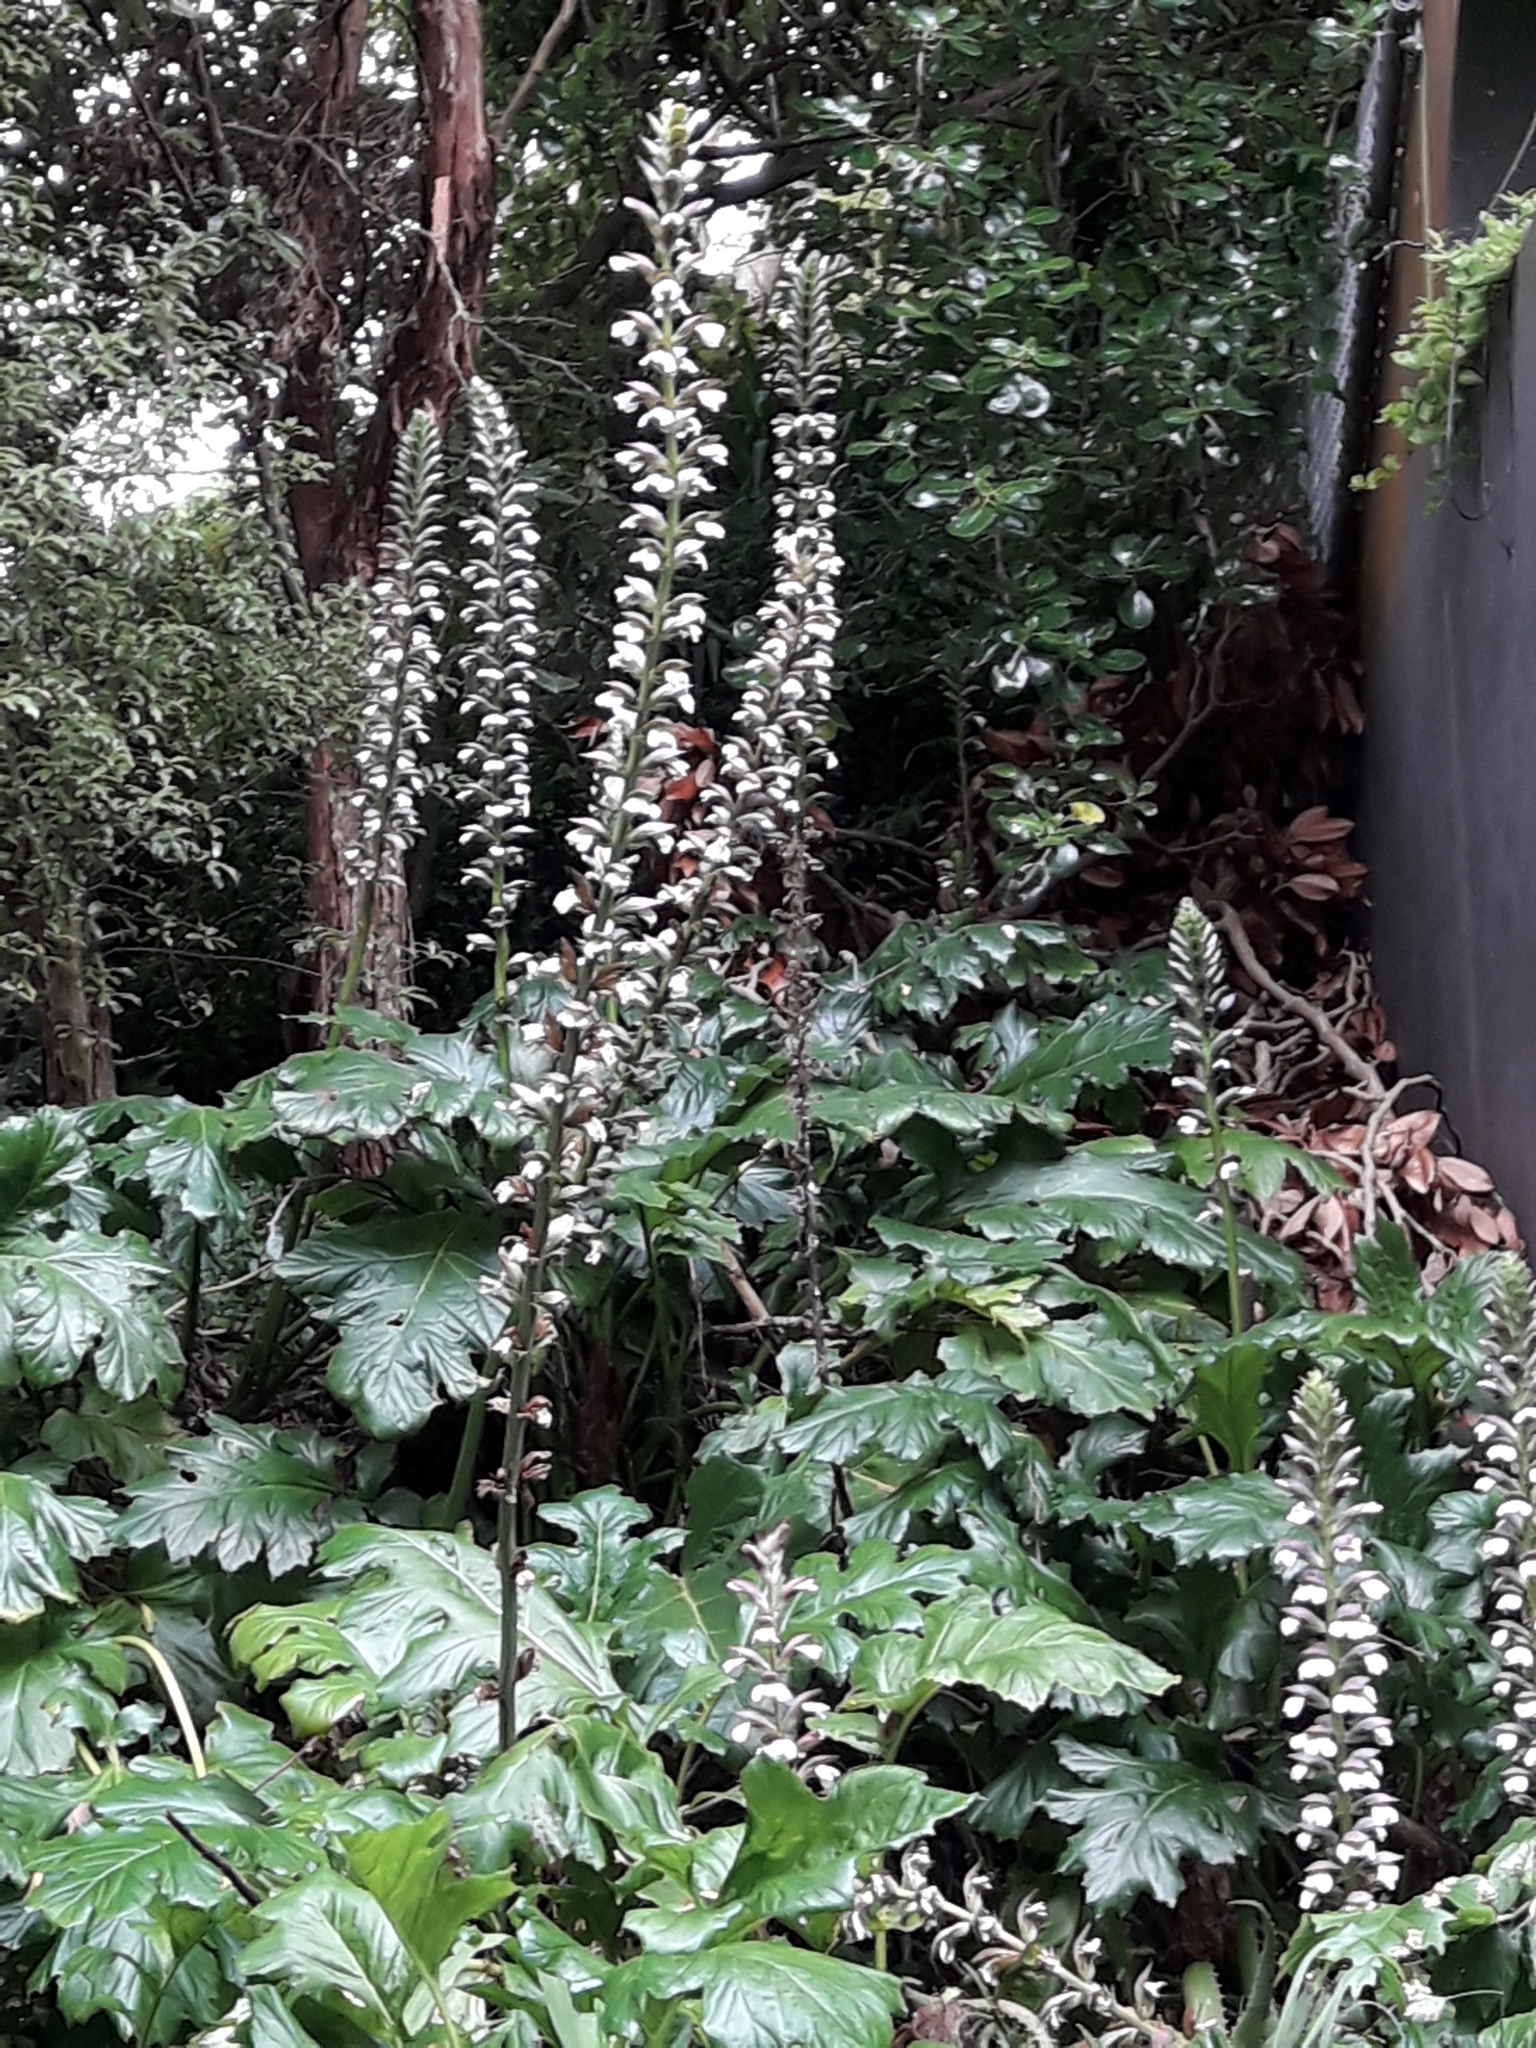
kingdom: Plantae
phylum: Tracheophyta
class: Magnoliopsida
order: Lamiales
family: Acanthaceae
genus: Acanthus
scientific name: Acanthus mollis
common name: Bear's-breech
